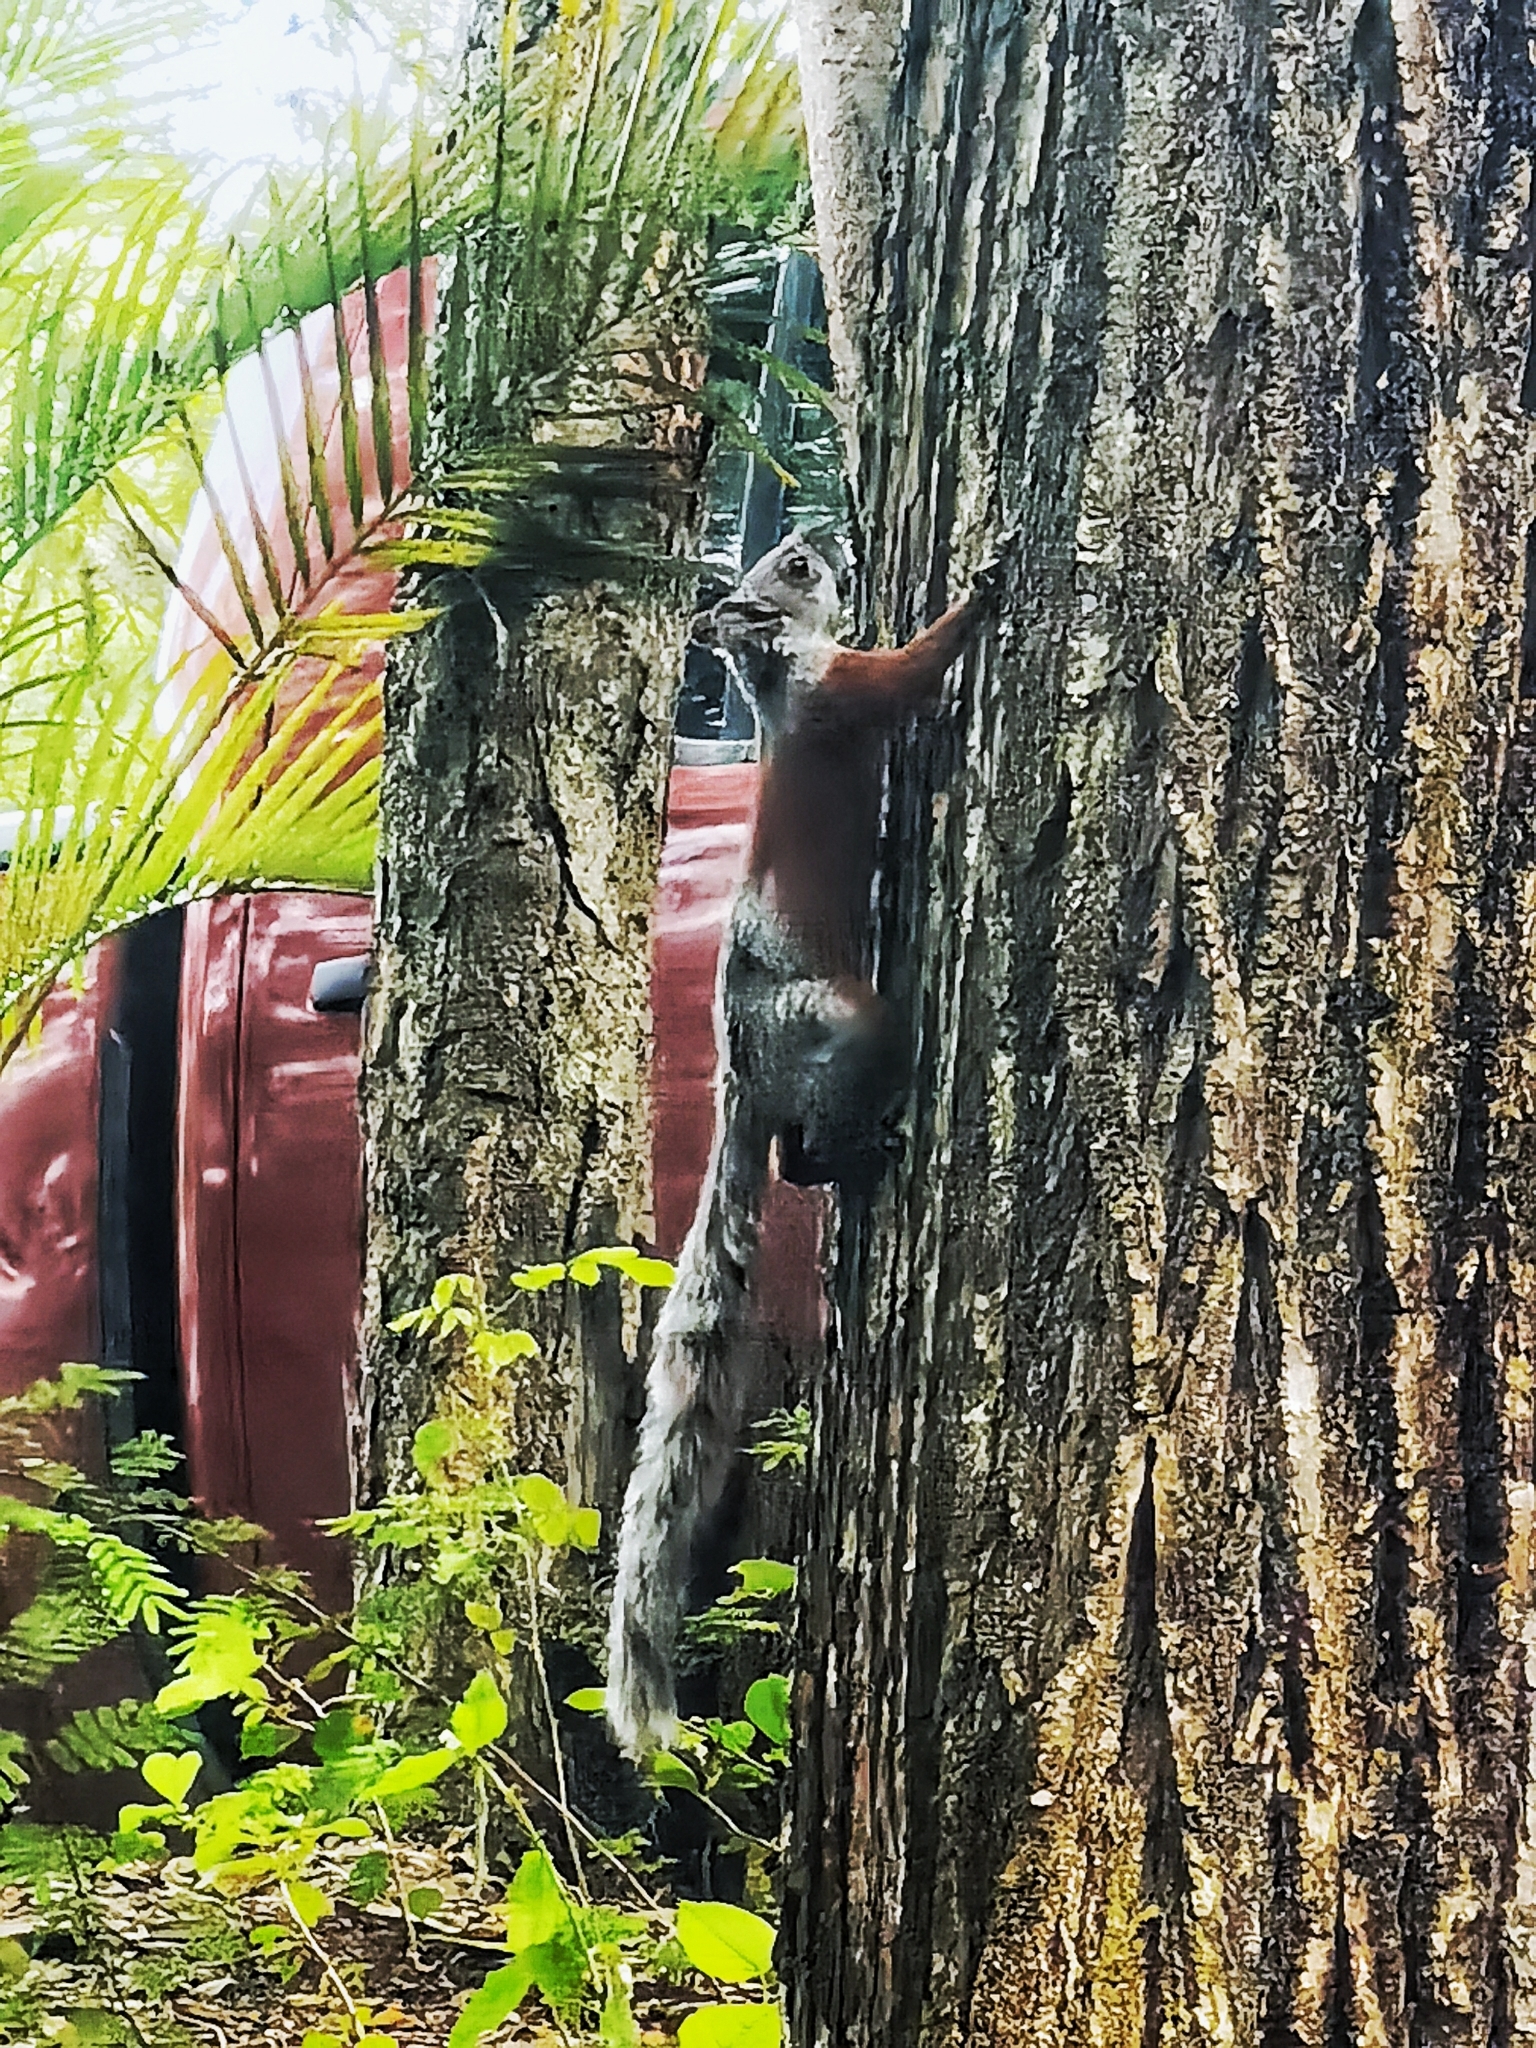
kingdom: Animalia
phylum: Chordata
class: Mammalia
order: Rodentia
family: Sciuridae
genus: Sciurus
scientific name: Sciurus aureogaster
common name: Red-bellied squirrel
